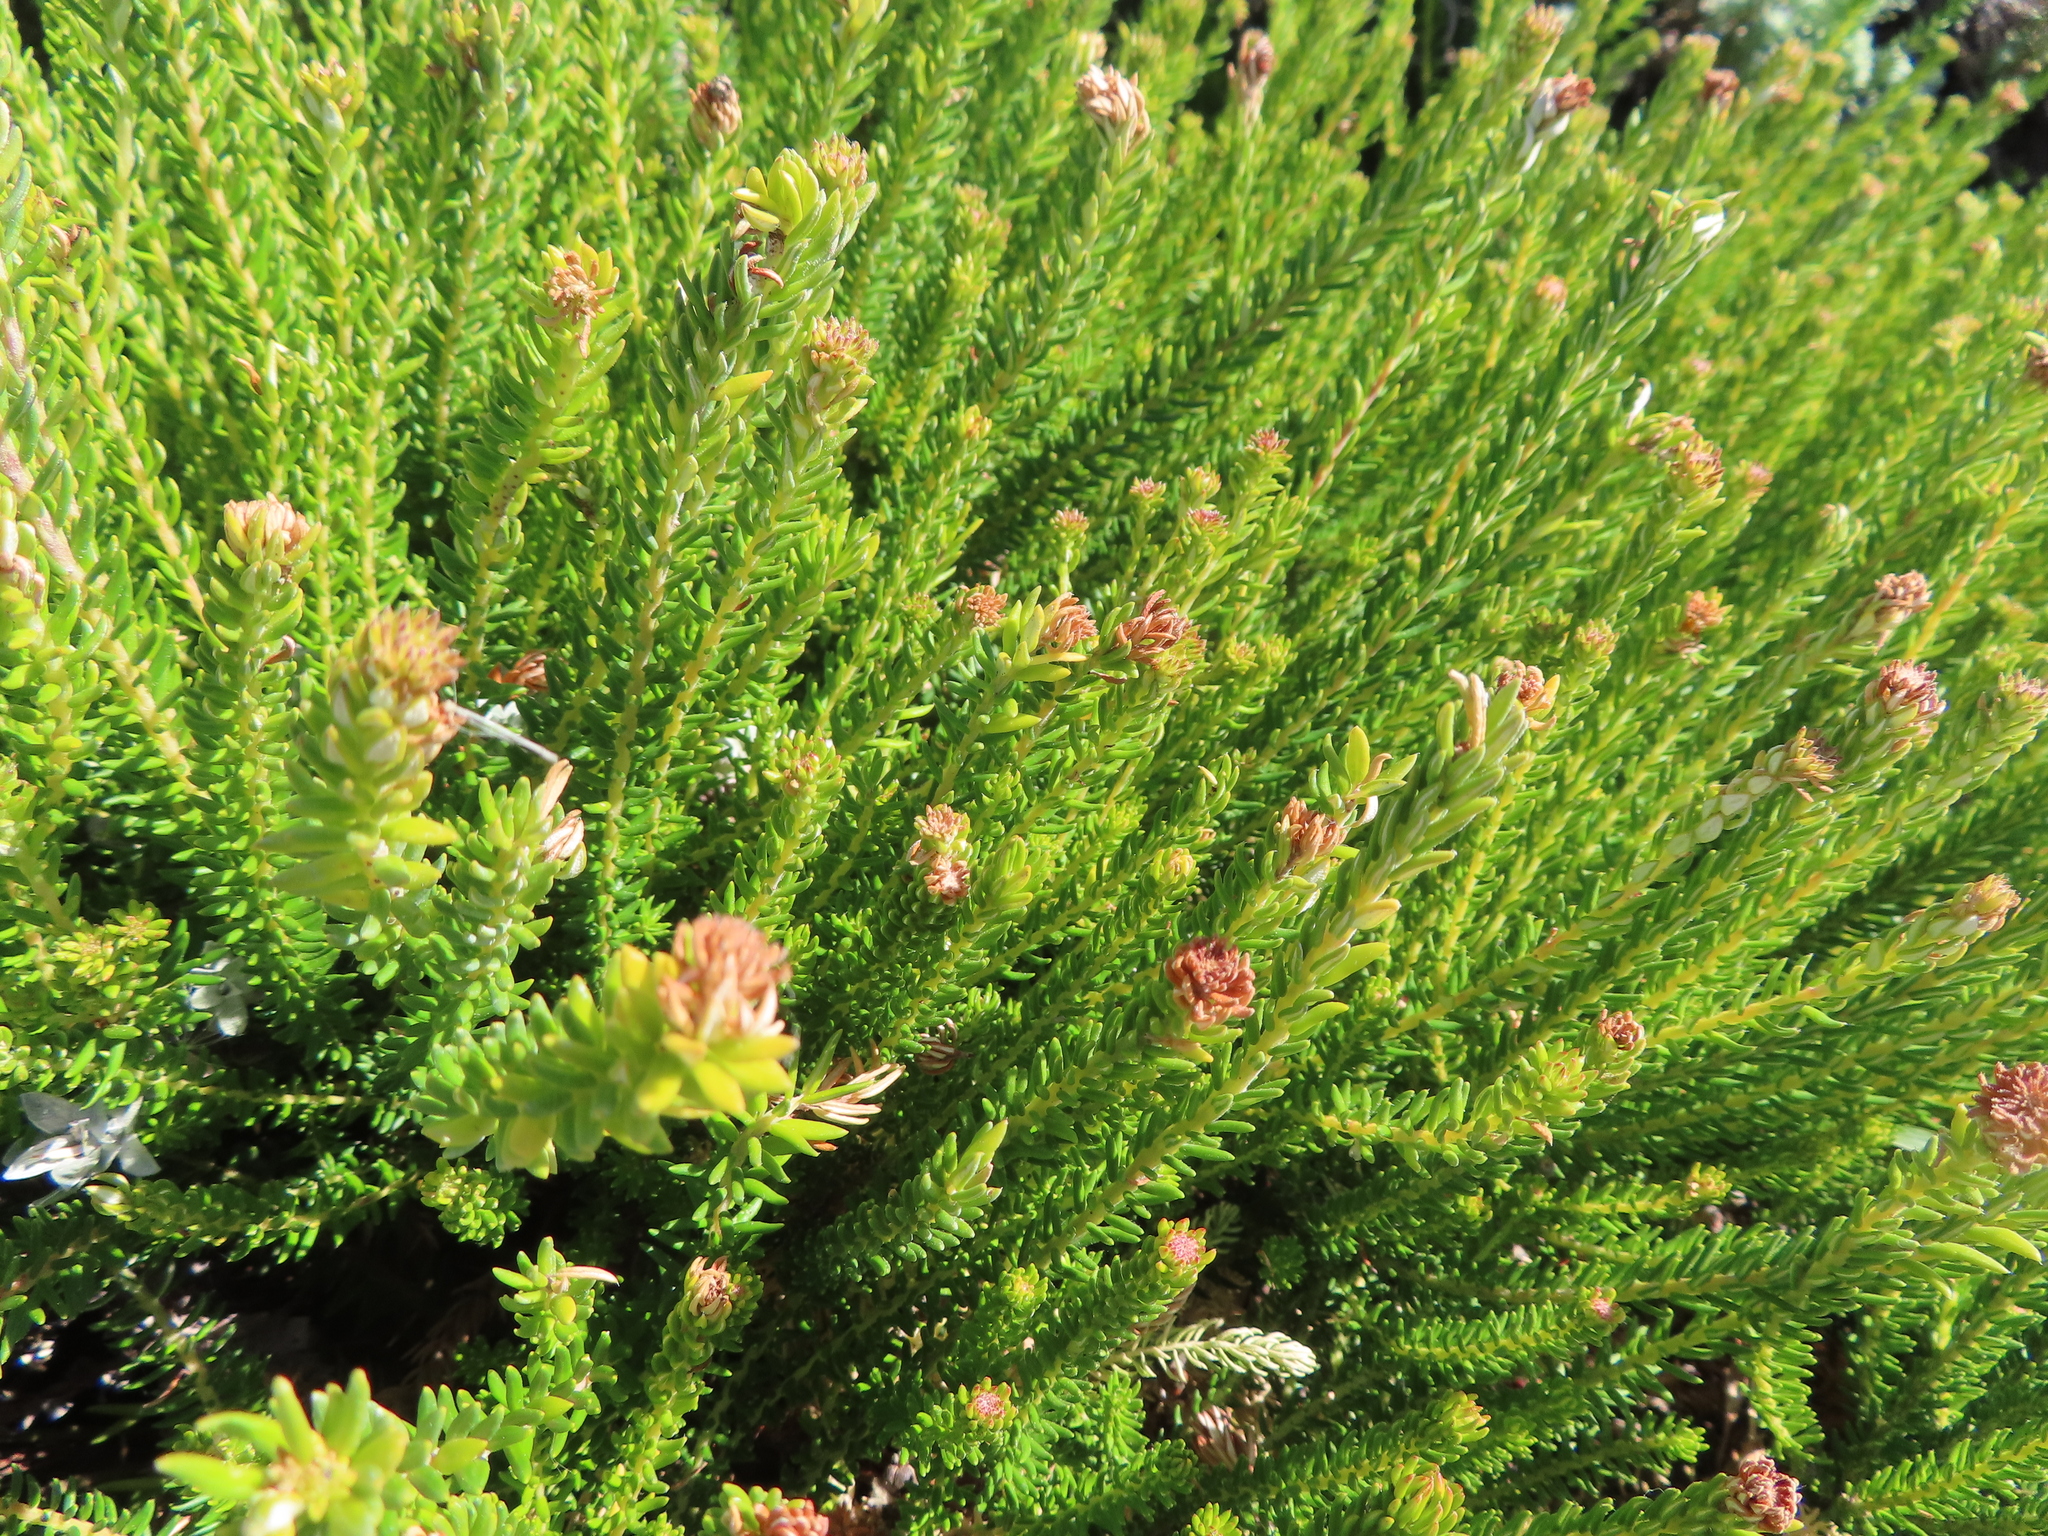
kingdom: Plantae
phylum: Tracheophyta
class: Magnoliopsida
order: Rosales
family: Rhamnaceae
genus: Phylica
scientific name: Phylica ericoides
